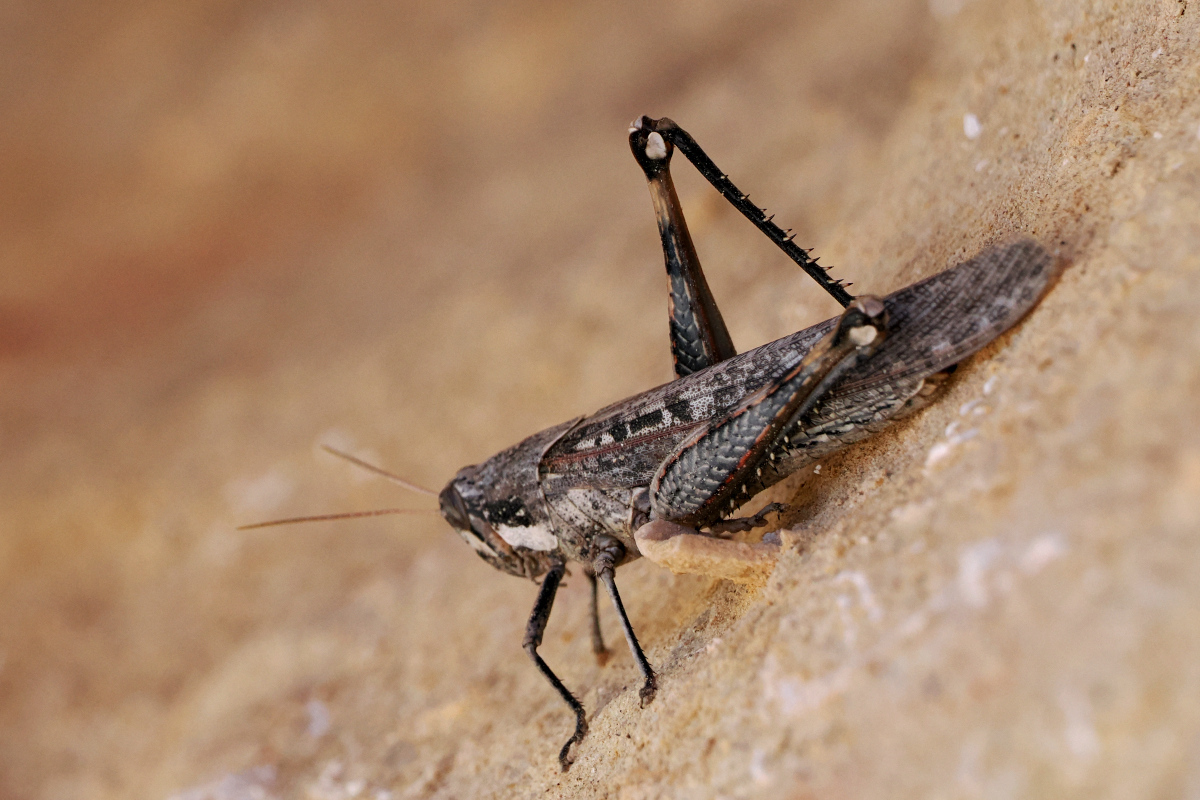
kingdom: Animalia
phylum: Arthropoda
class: Insecta
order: Orthoptera
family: Acrididae
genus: Schistocerca
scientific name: Schistocerca nitens
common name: Vagrant grasshopper
